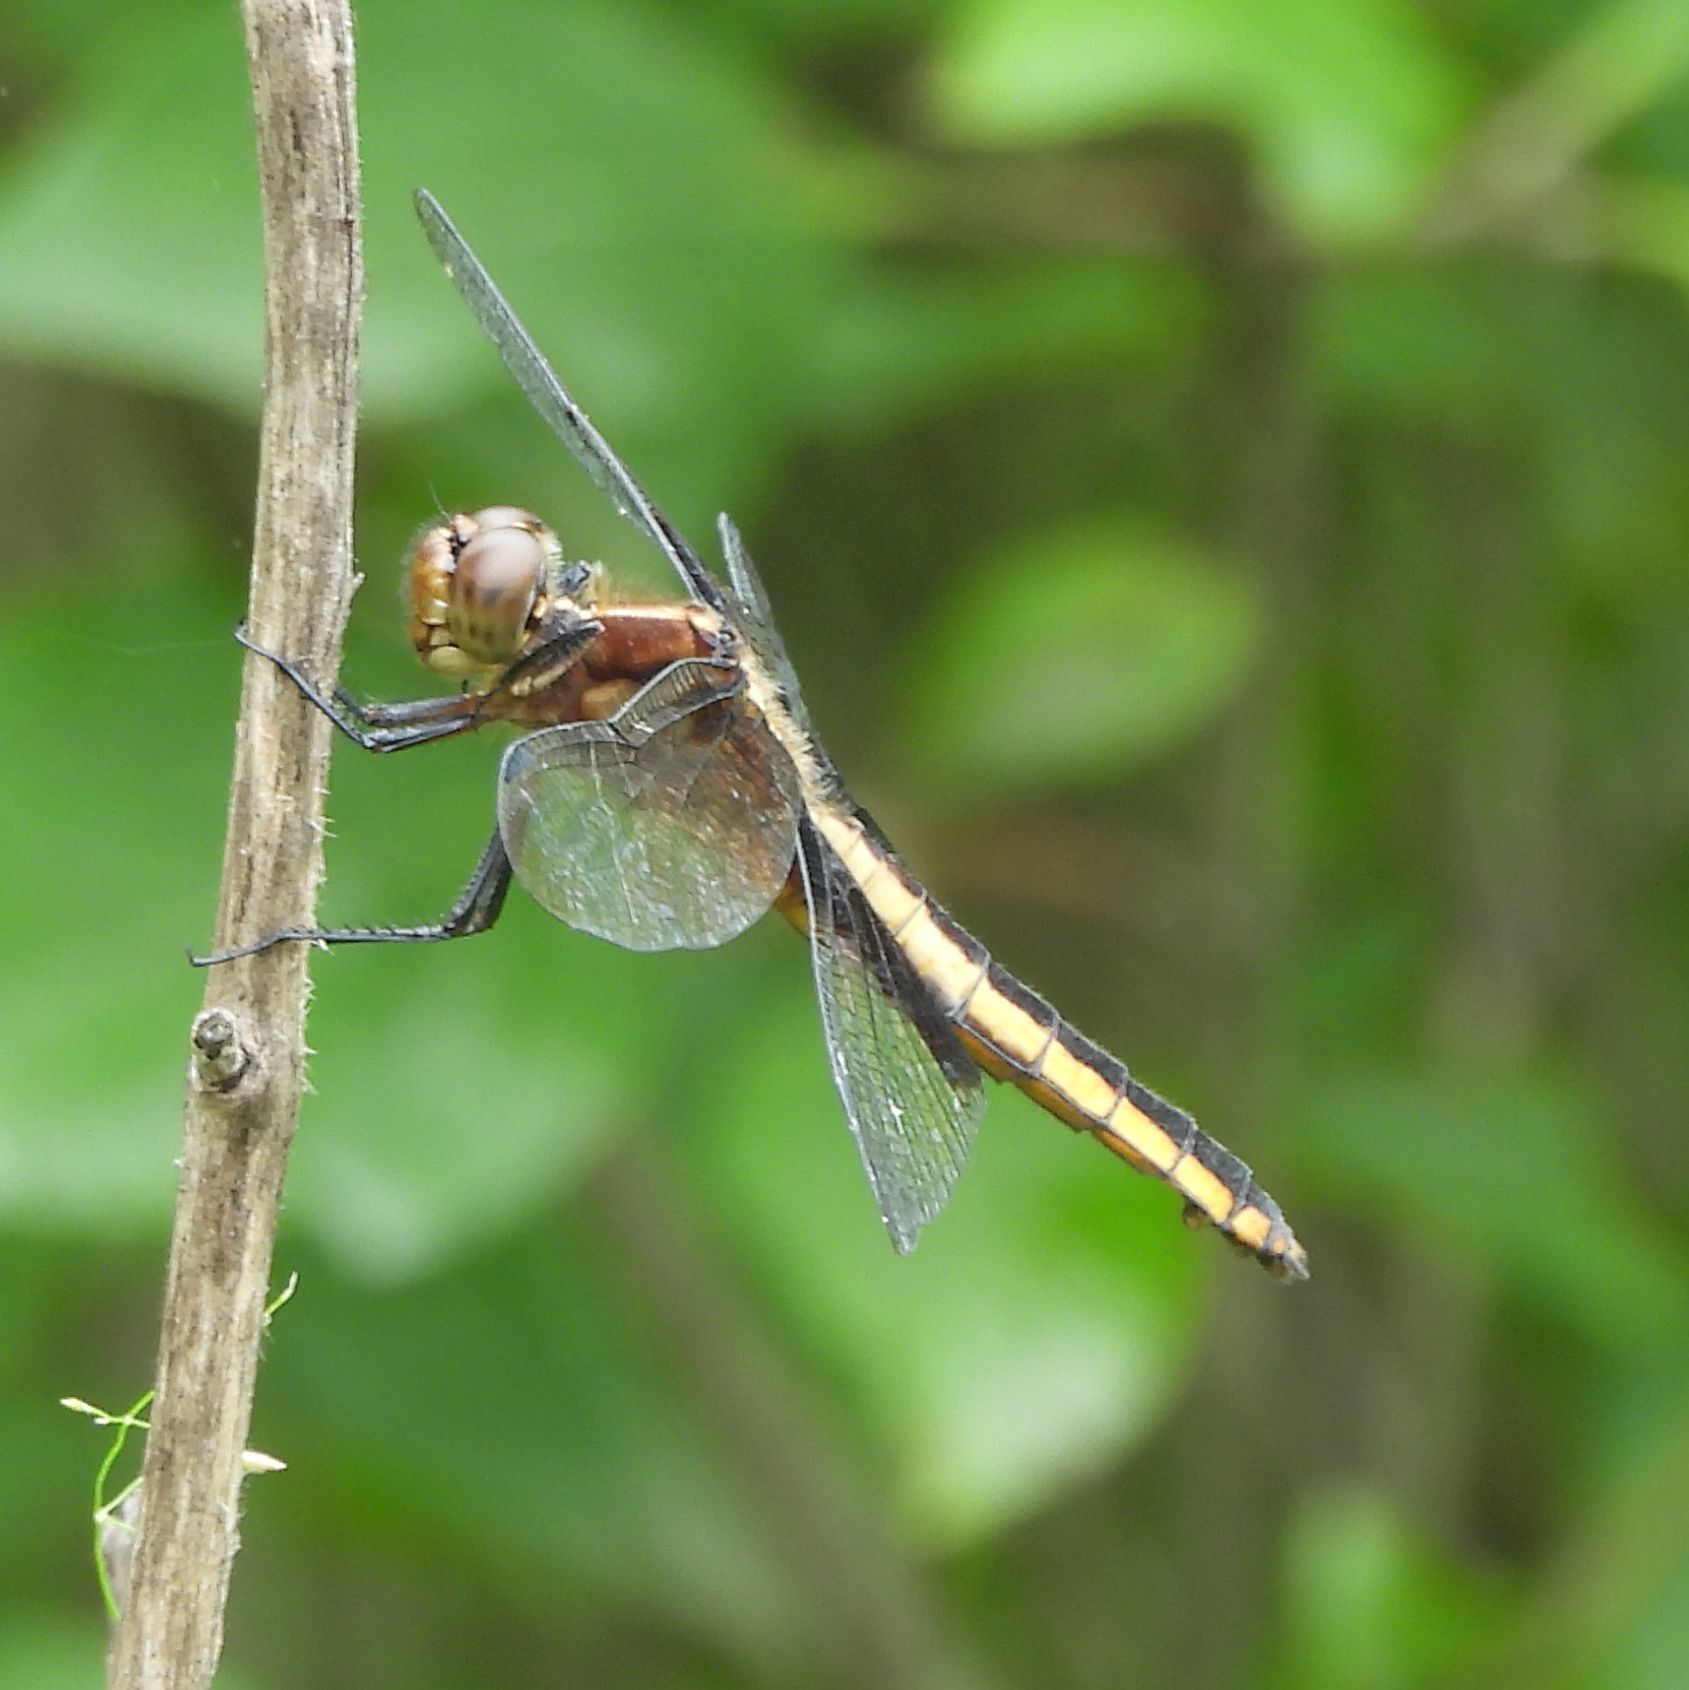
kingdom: Animalia
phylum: Arthropoda
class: Insecta
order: Odonata
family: Libellulidae
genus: Libellula
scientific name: Libellula luctuosa
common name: Widow skimmer
